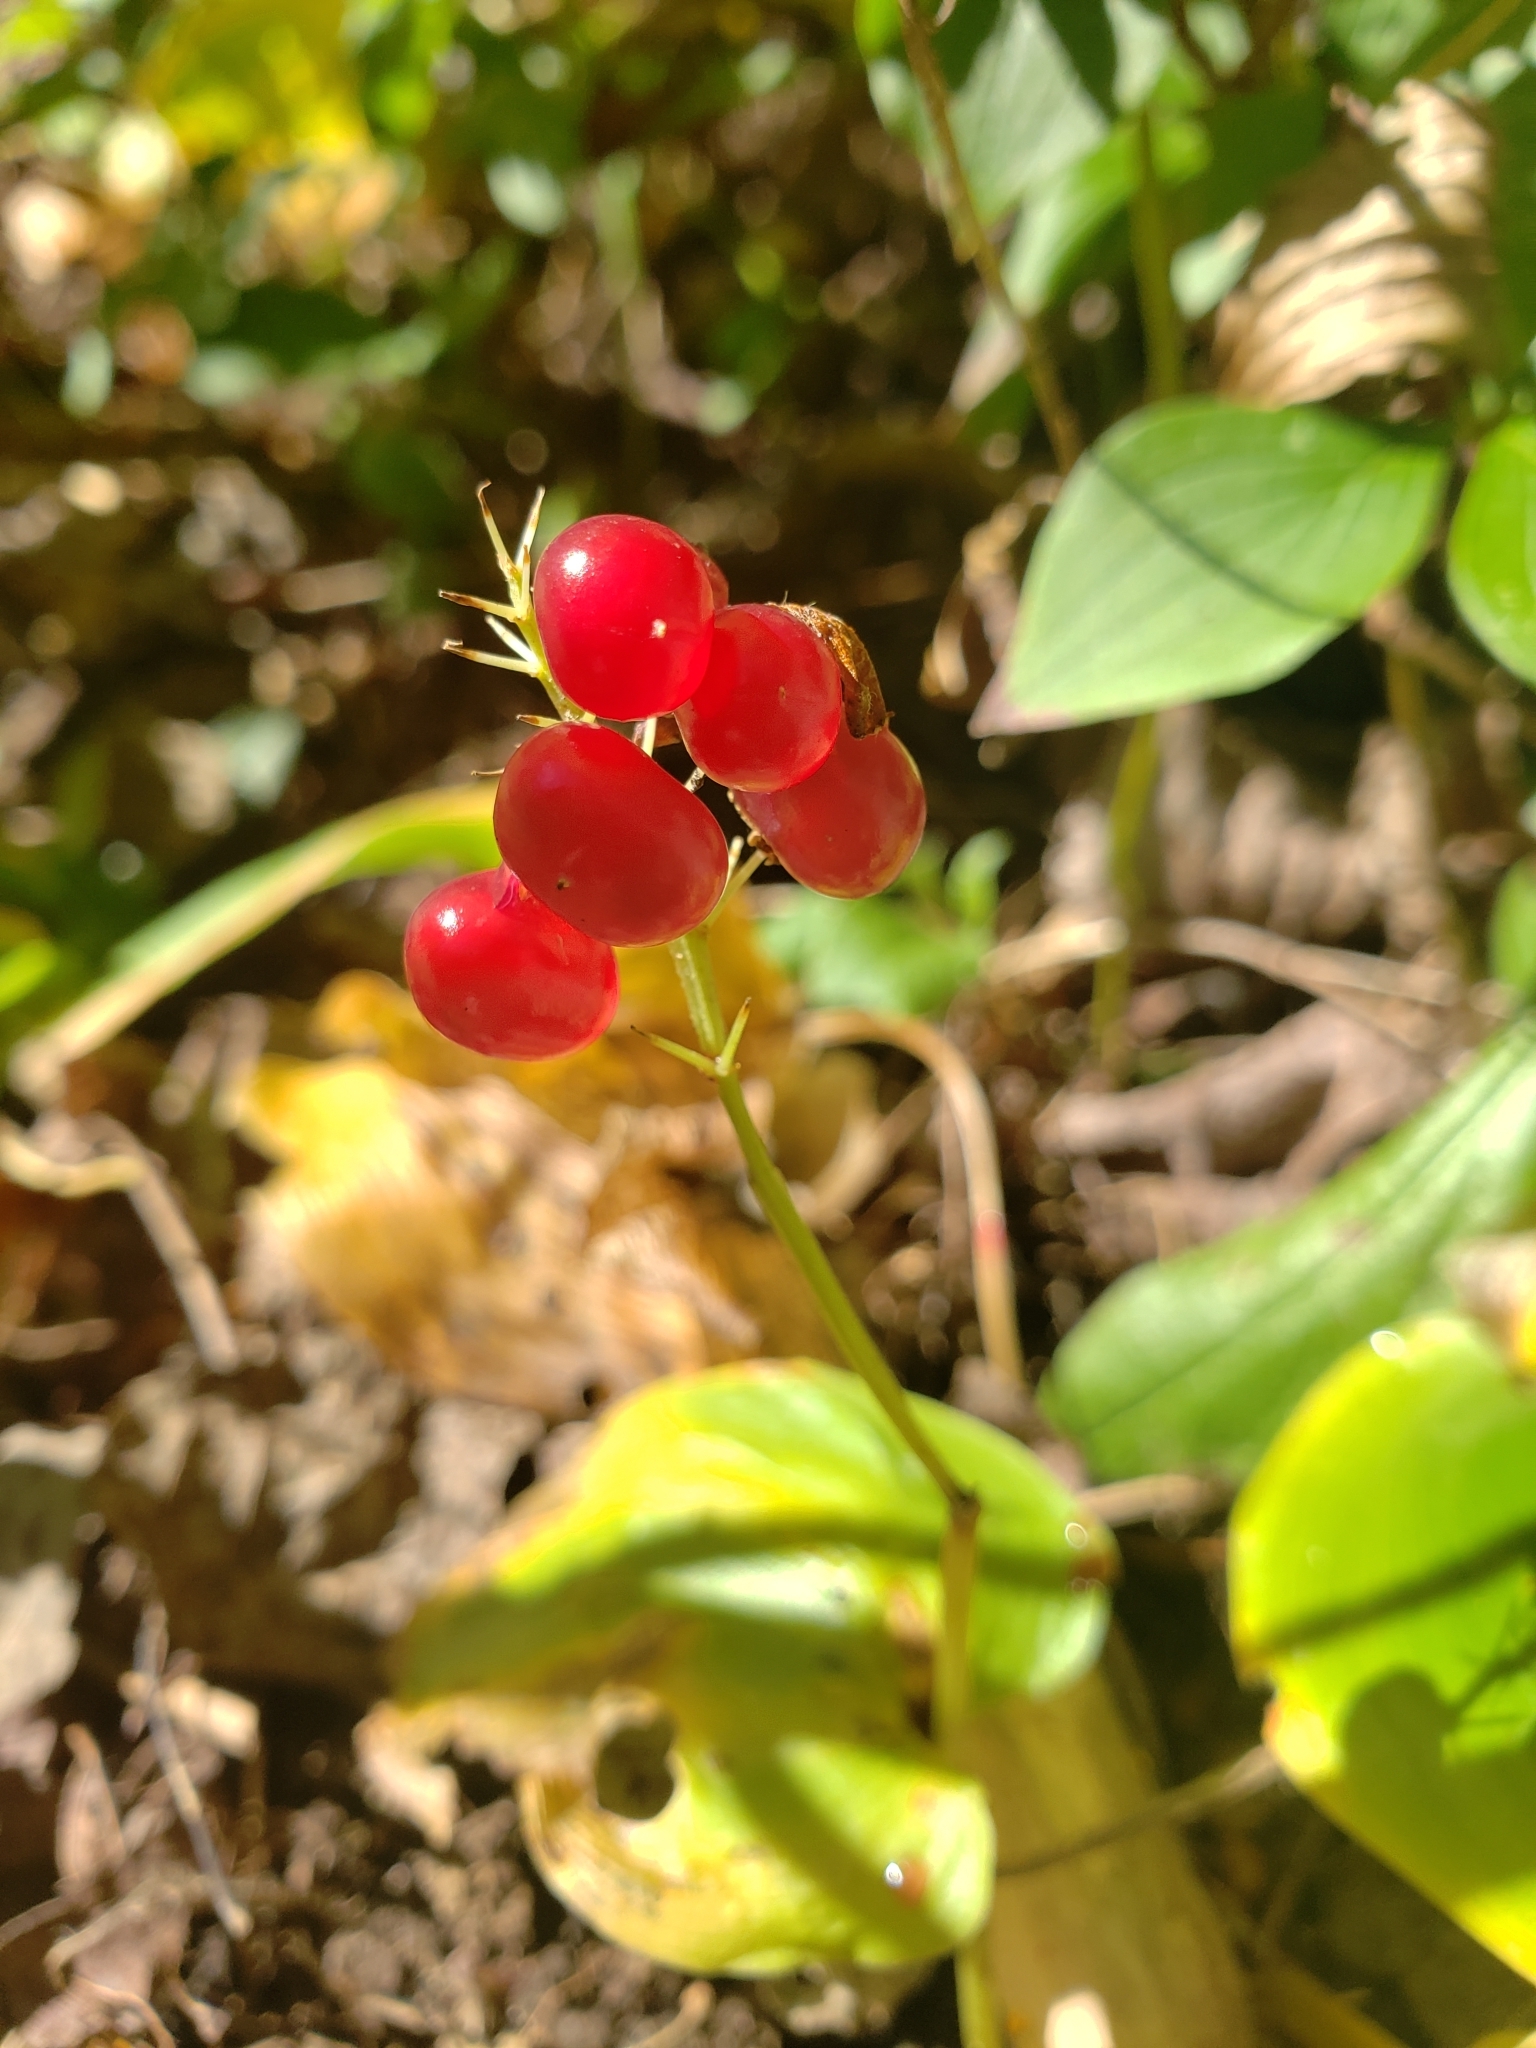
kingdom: Plantae
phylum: Tracheophyta
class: Liliopsida
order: Asparagales
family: Asparagaceae
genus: Maianthemum
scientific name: Maianthemum canadense
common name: False lily-of-the-valley
